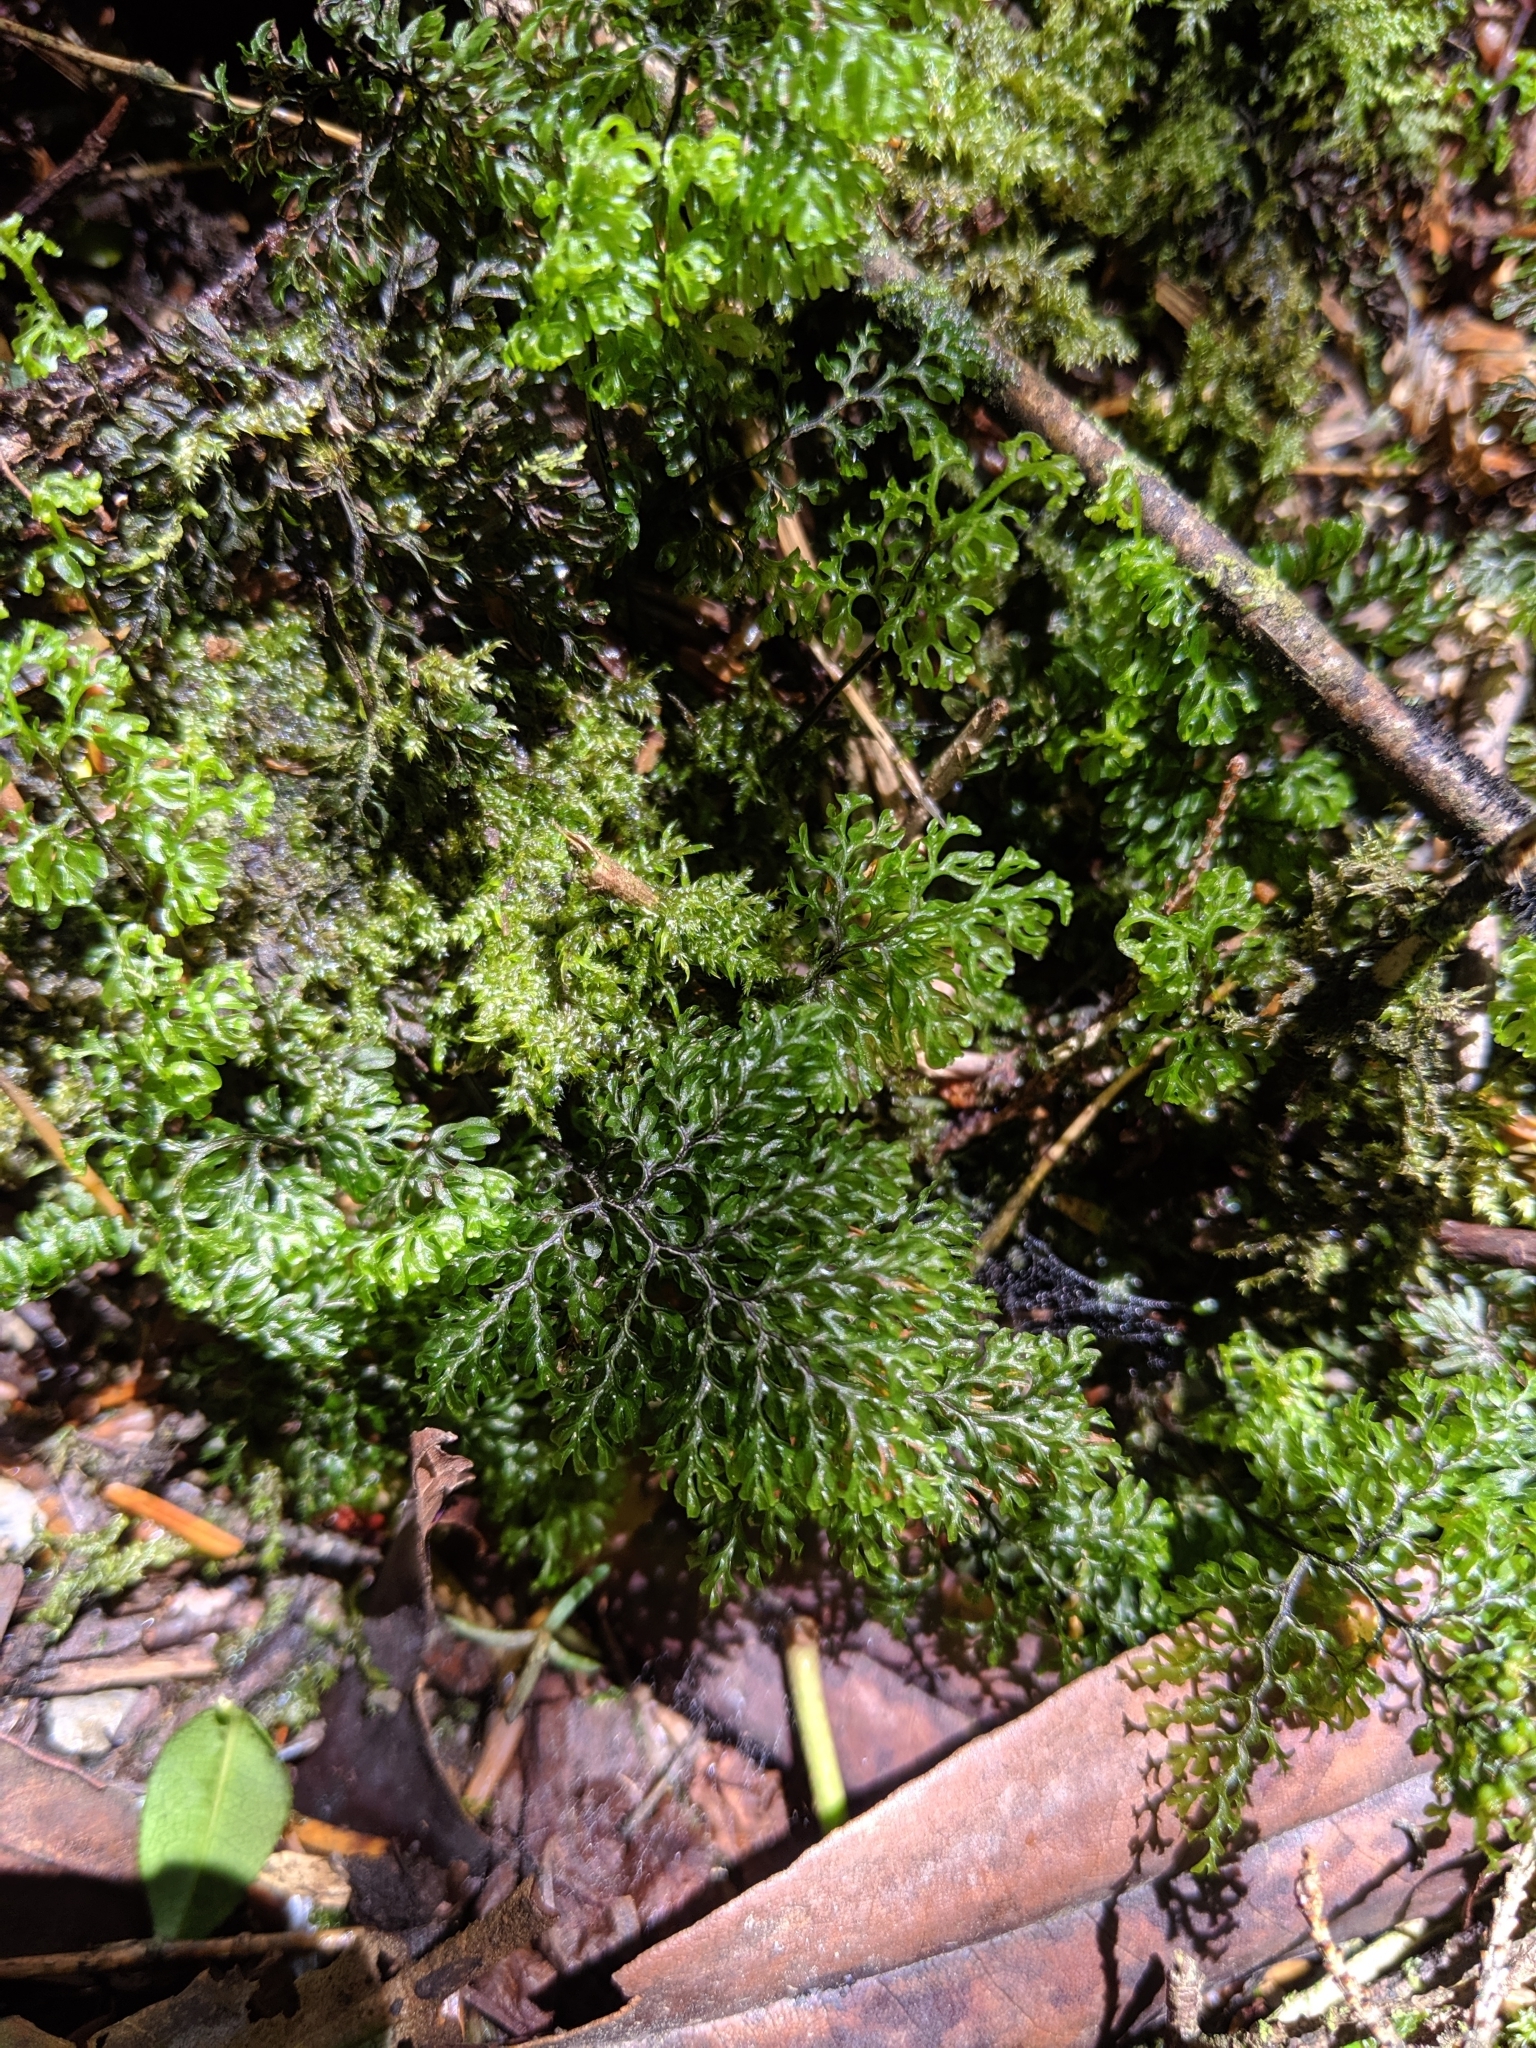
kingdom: Plantae
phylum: Tracheophyta
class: Polypodiopsida
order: Hymenophyllales
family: Hymenophyllaceae
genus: Hymenophyllum
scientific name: Hymenophyllum paniculiflorum
